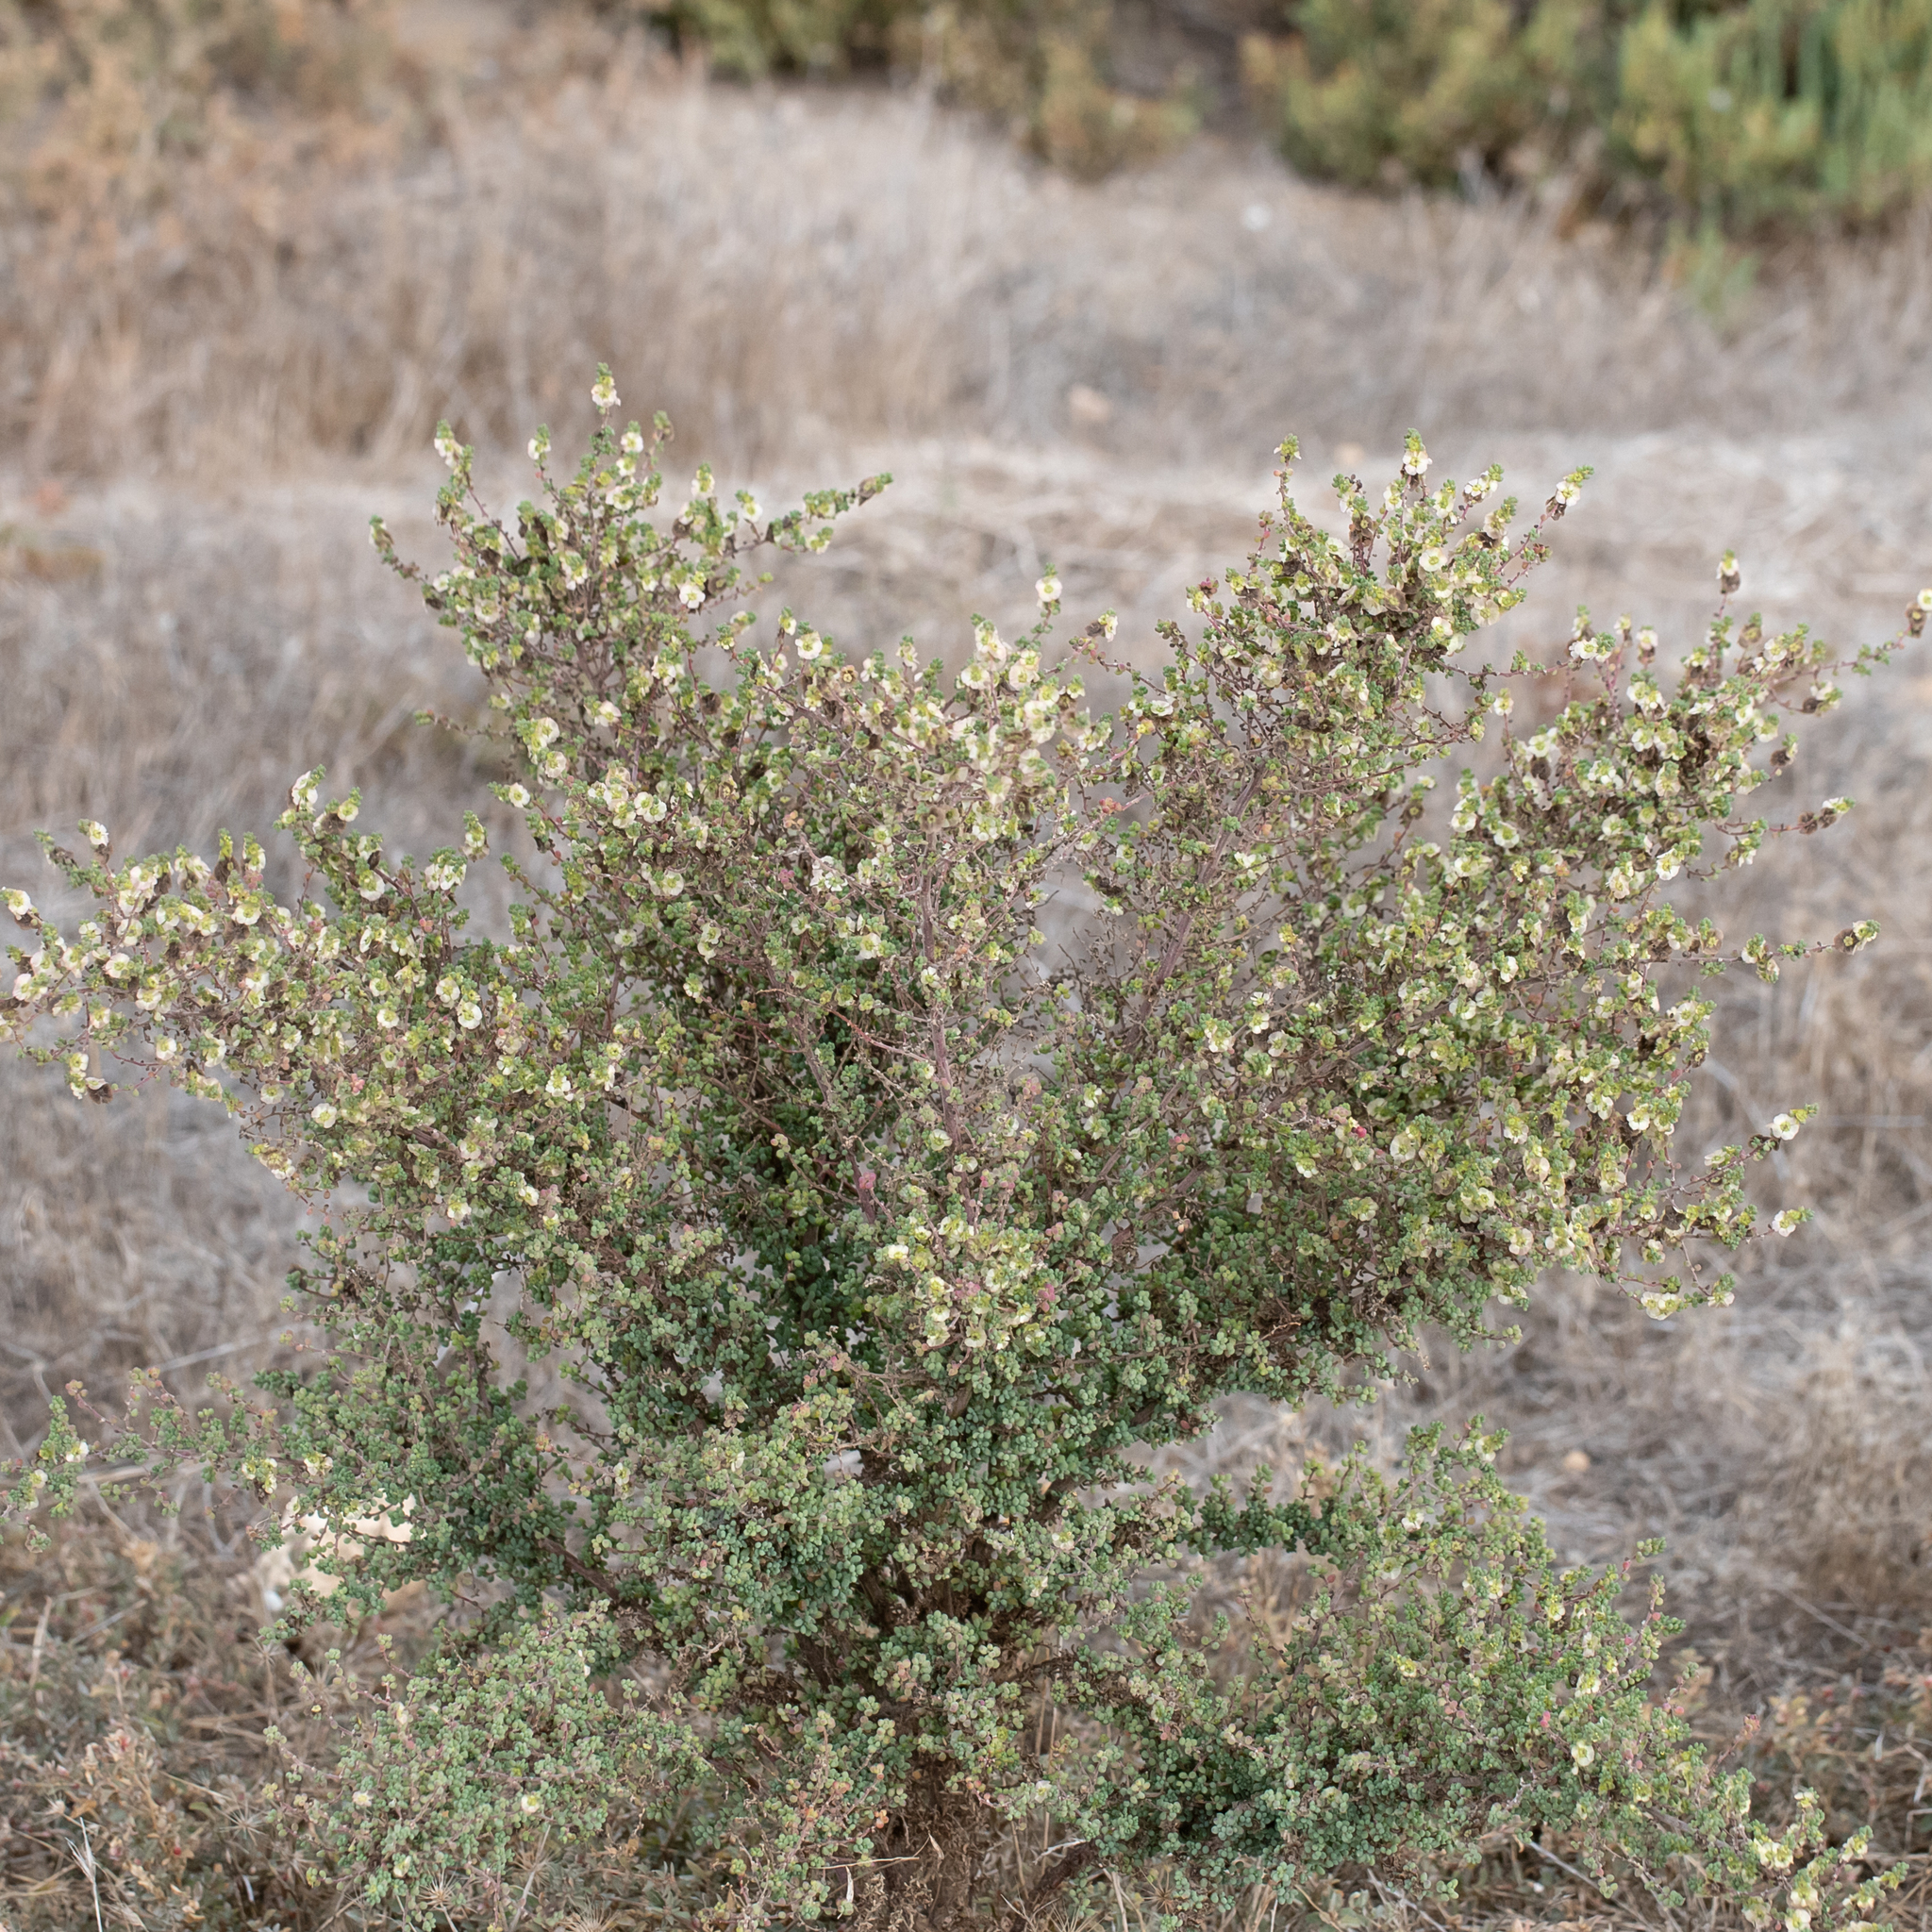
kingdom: Plantae
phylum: Tracheophyta
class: Magnoliopsida
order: Caryophyllales
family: Amaranthaceae
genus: Maireana
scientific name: Maireana brevifolia
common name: Eastern cottonbush
